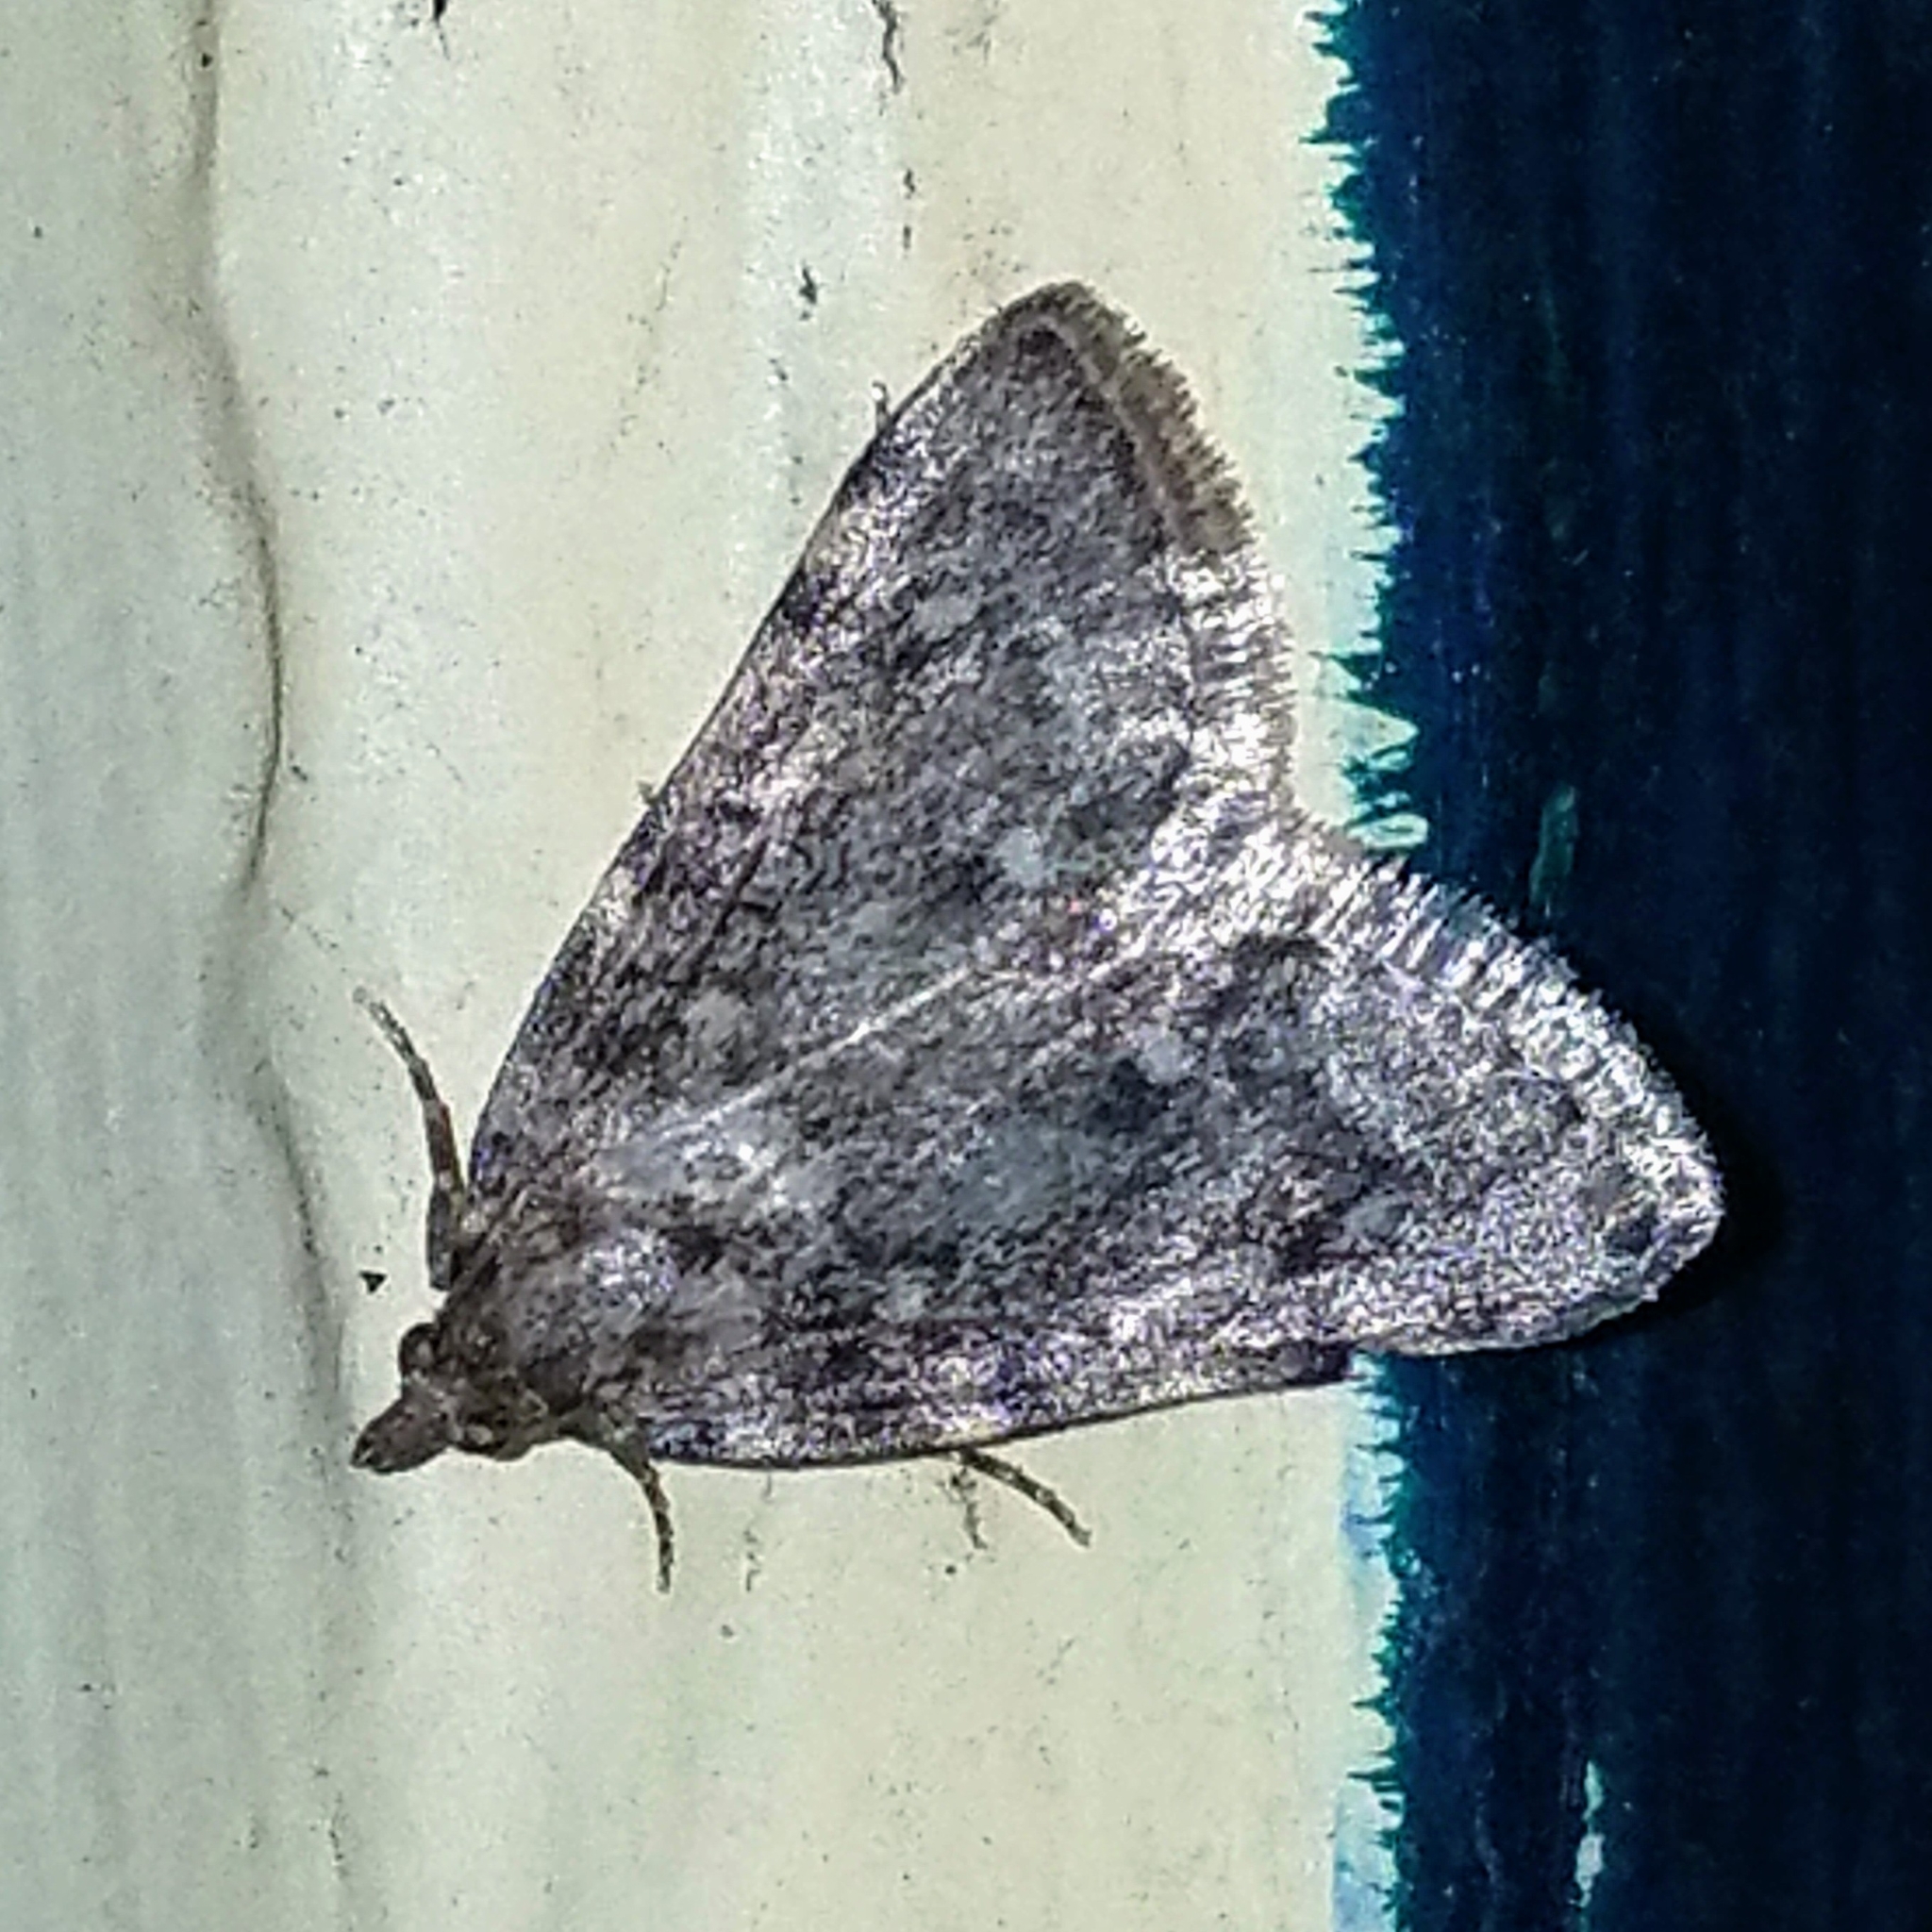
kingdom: Animalia
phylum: Arthropoda
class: Insecta
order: Lepidoptera
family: Pyralidae
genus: Aglossa
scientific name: Aglossa pinguinalis
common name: Large tabby
